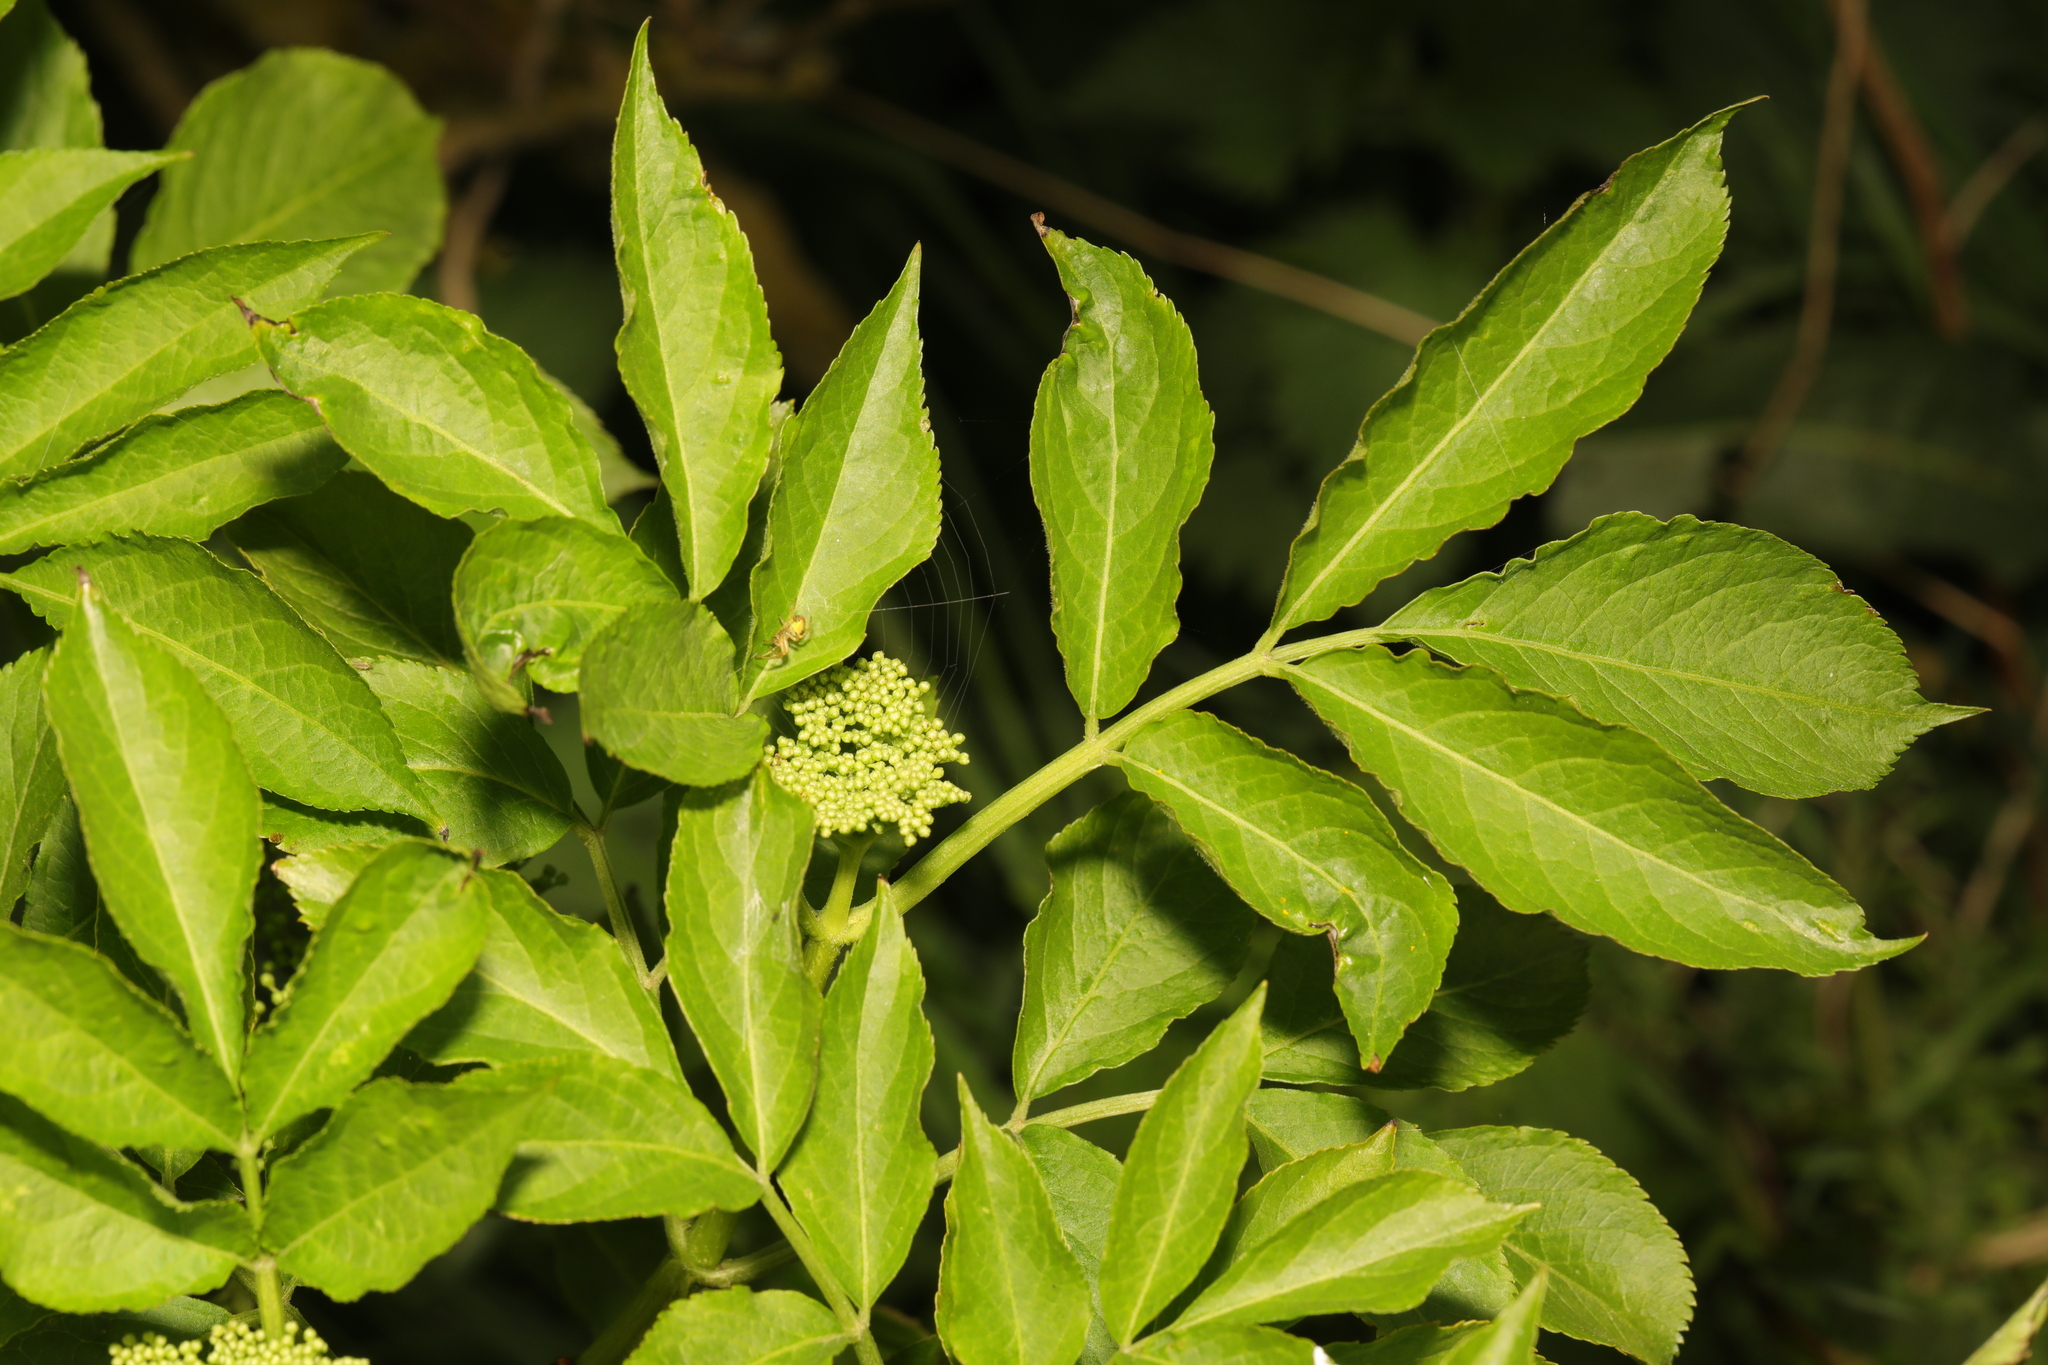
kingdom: Plantae
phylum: Tracheophyta
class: Magnoliopsida
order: Dipsacales
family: Viburnaceae
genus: Sambucus
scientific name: Sambucus nigra
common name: Elder
